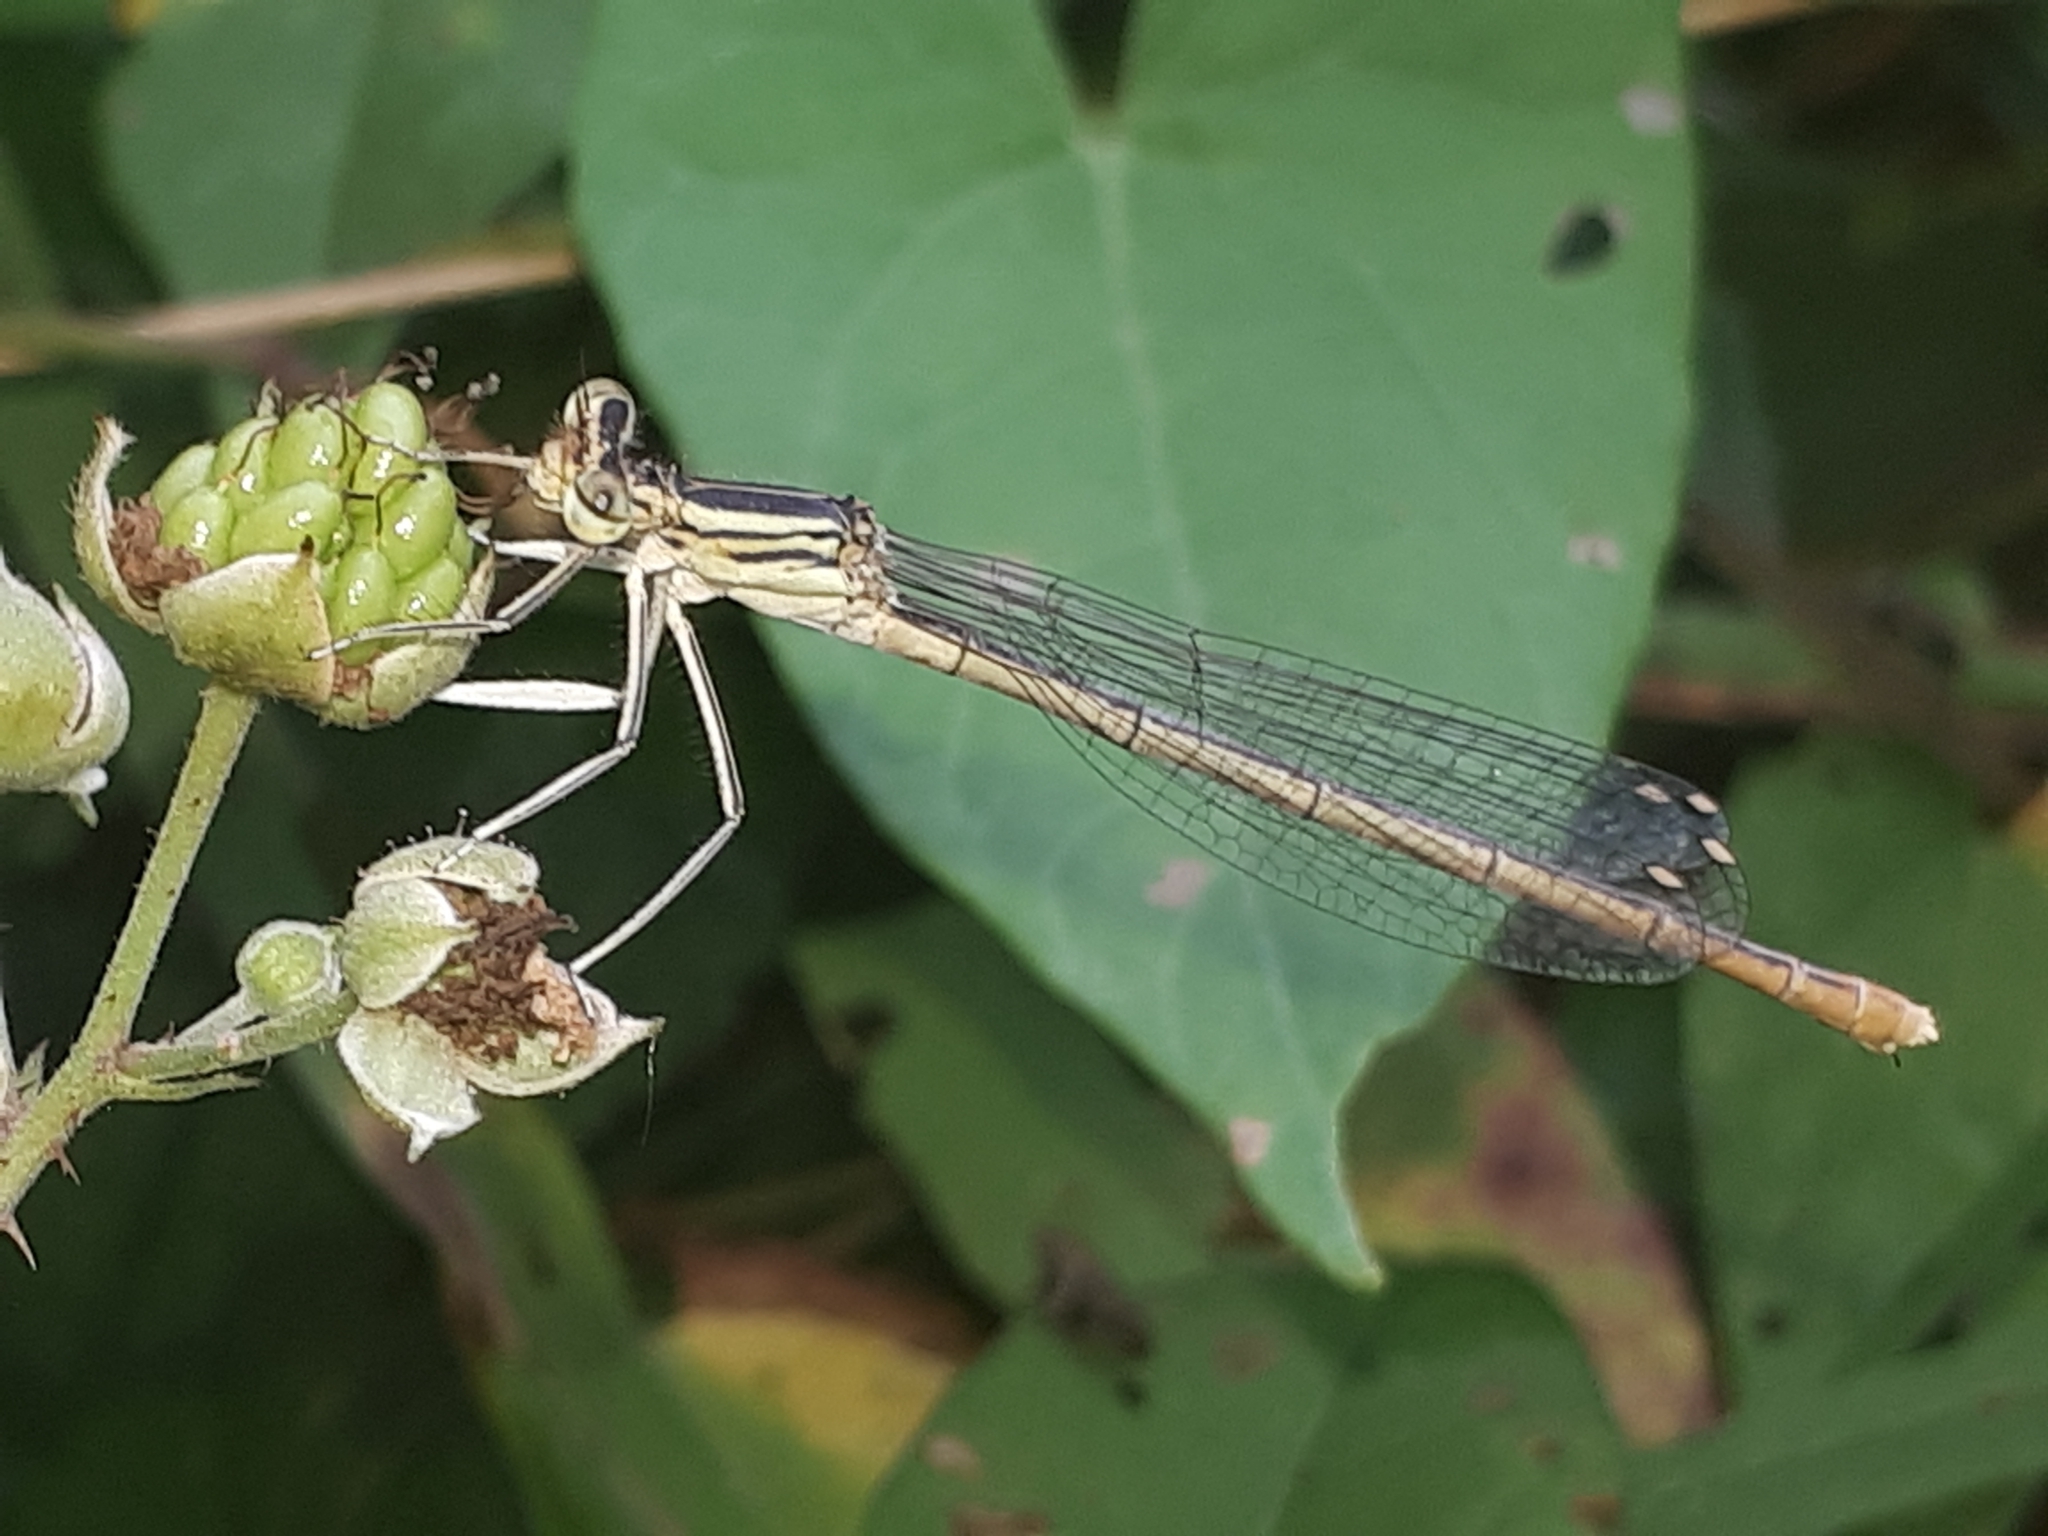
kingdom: Animalia
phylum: Arthropoda
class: Insecta
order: Odonata
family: Platycnemididae
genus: Platycnemis
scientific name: Platycnemis pennipes
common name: White-legged damselfly
